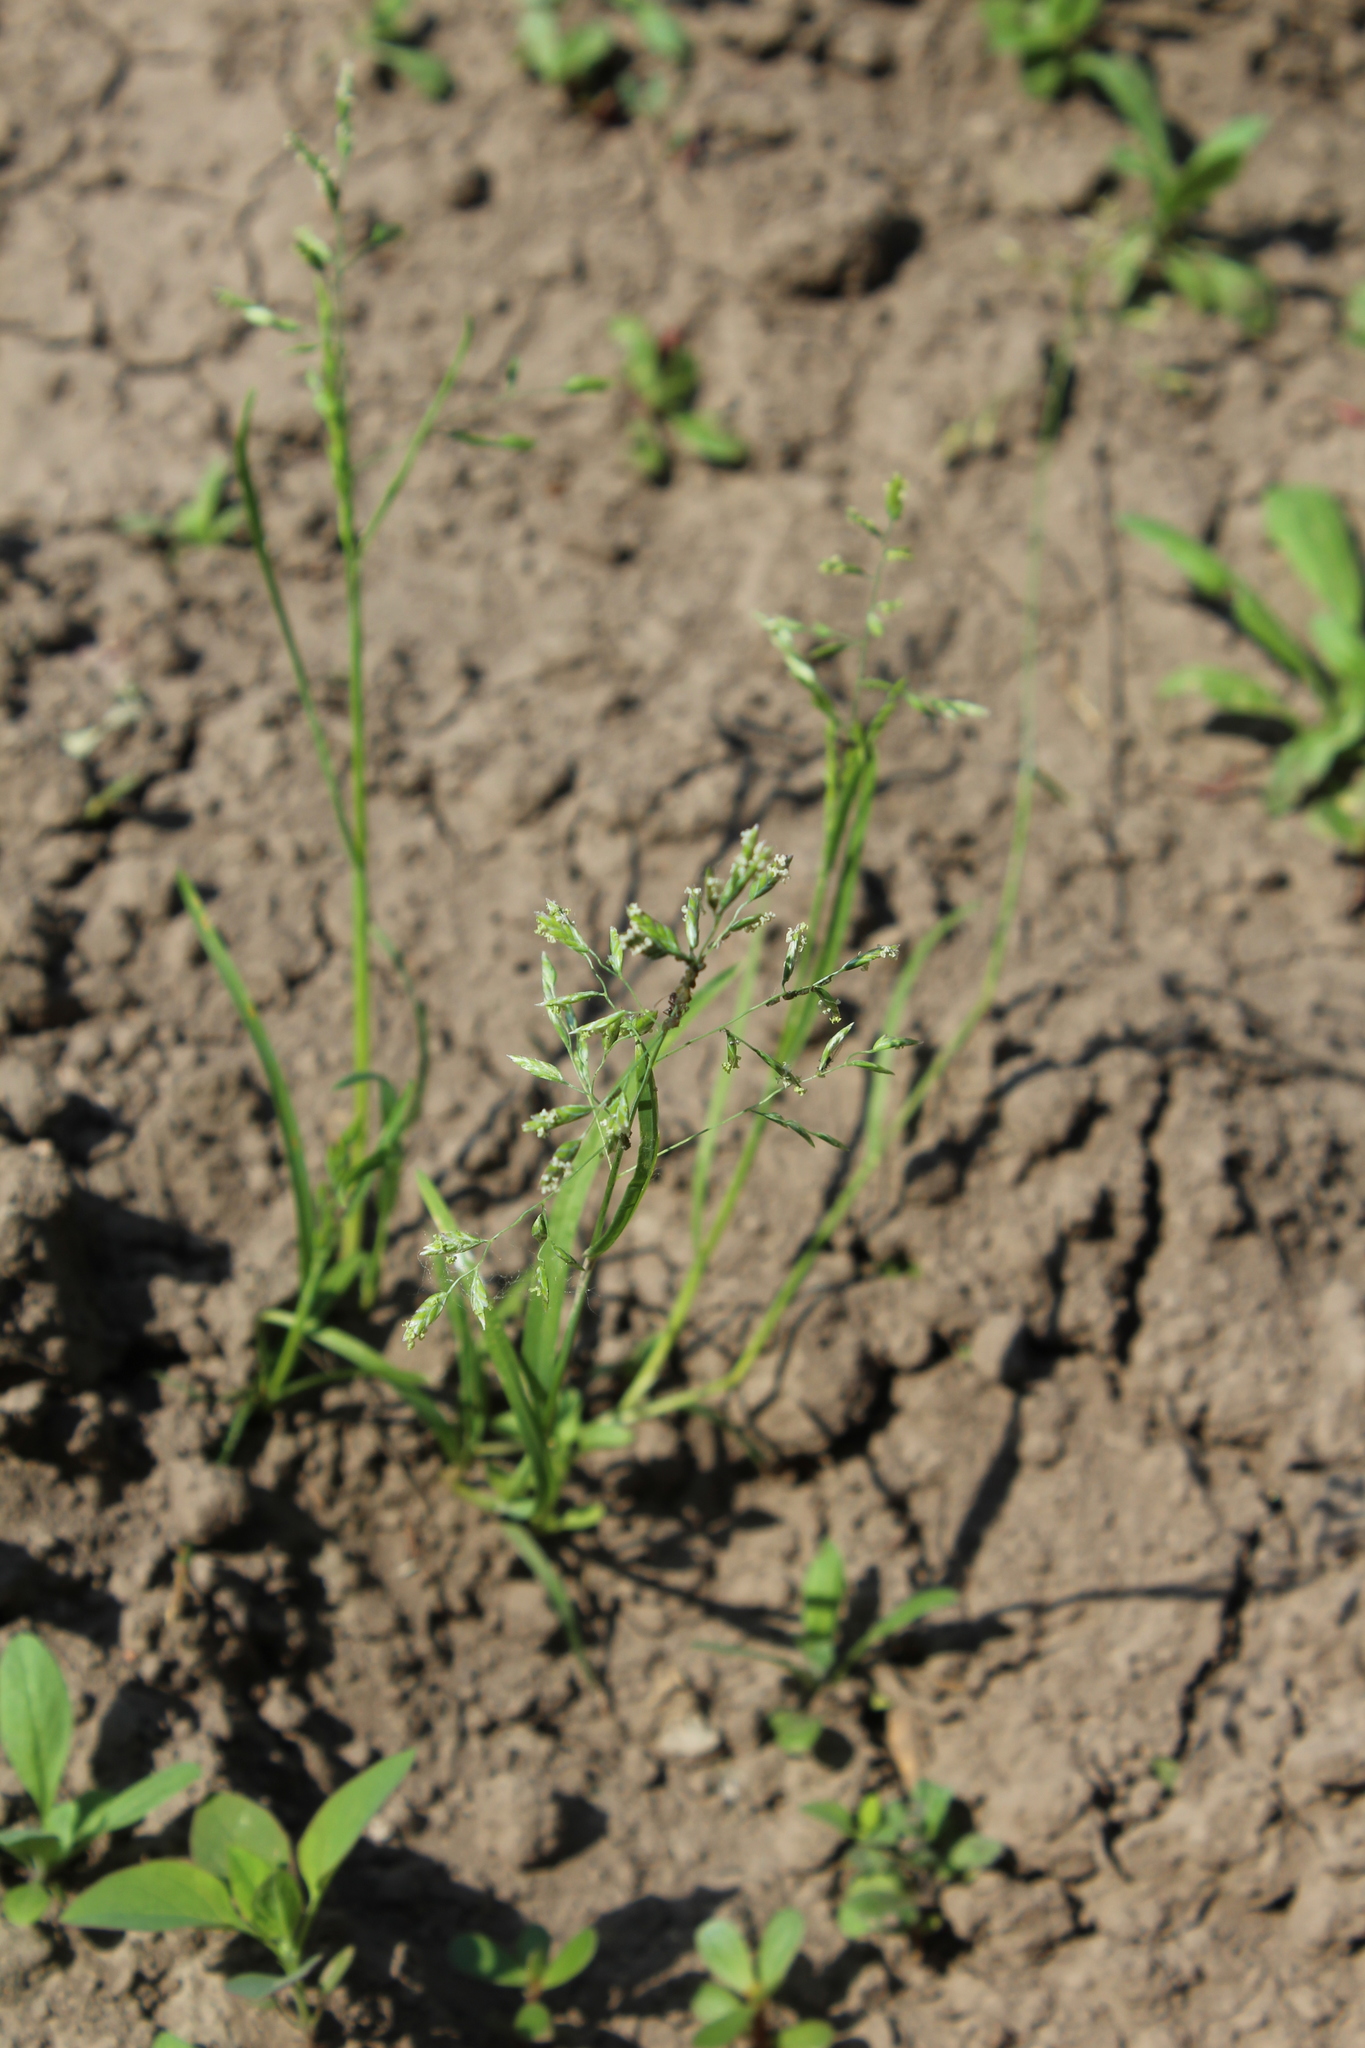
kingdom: Plantae
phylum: Tracheophyta
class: Liliopsida
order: Poales
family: Poaceae
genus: Poa
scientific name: Poa annua
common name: Annual bluegrass
